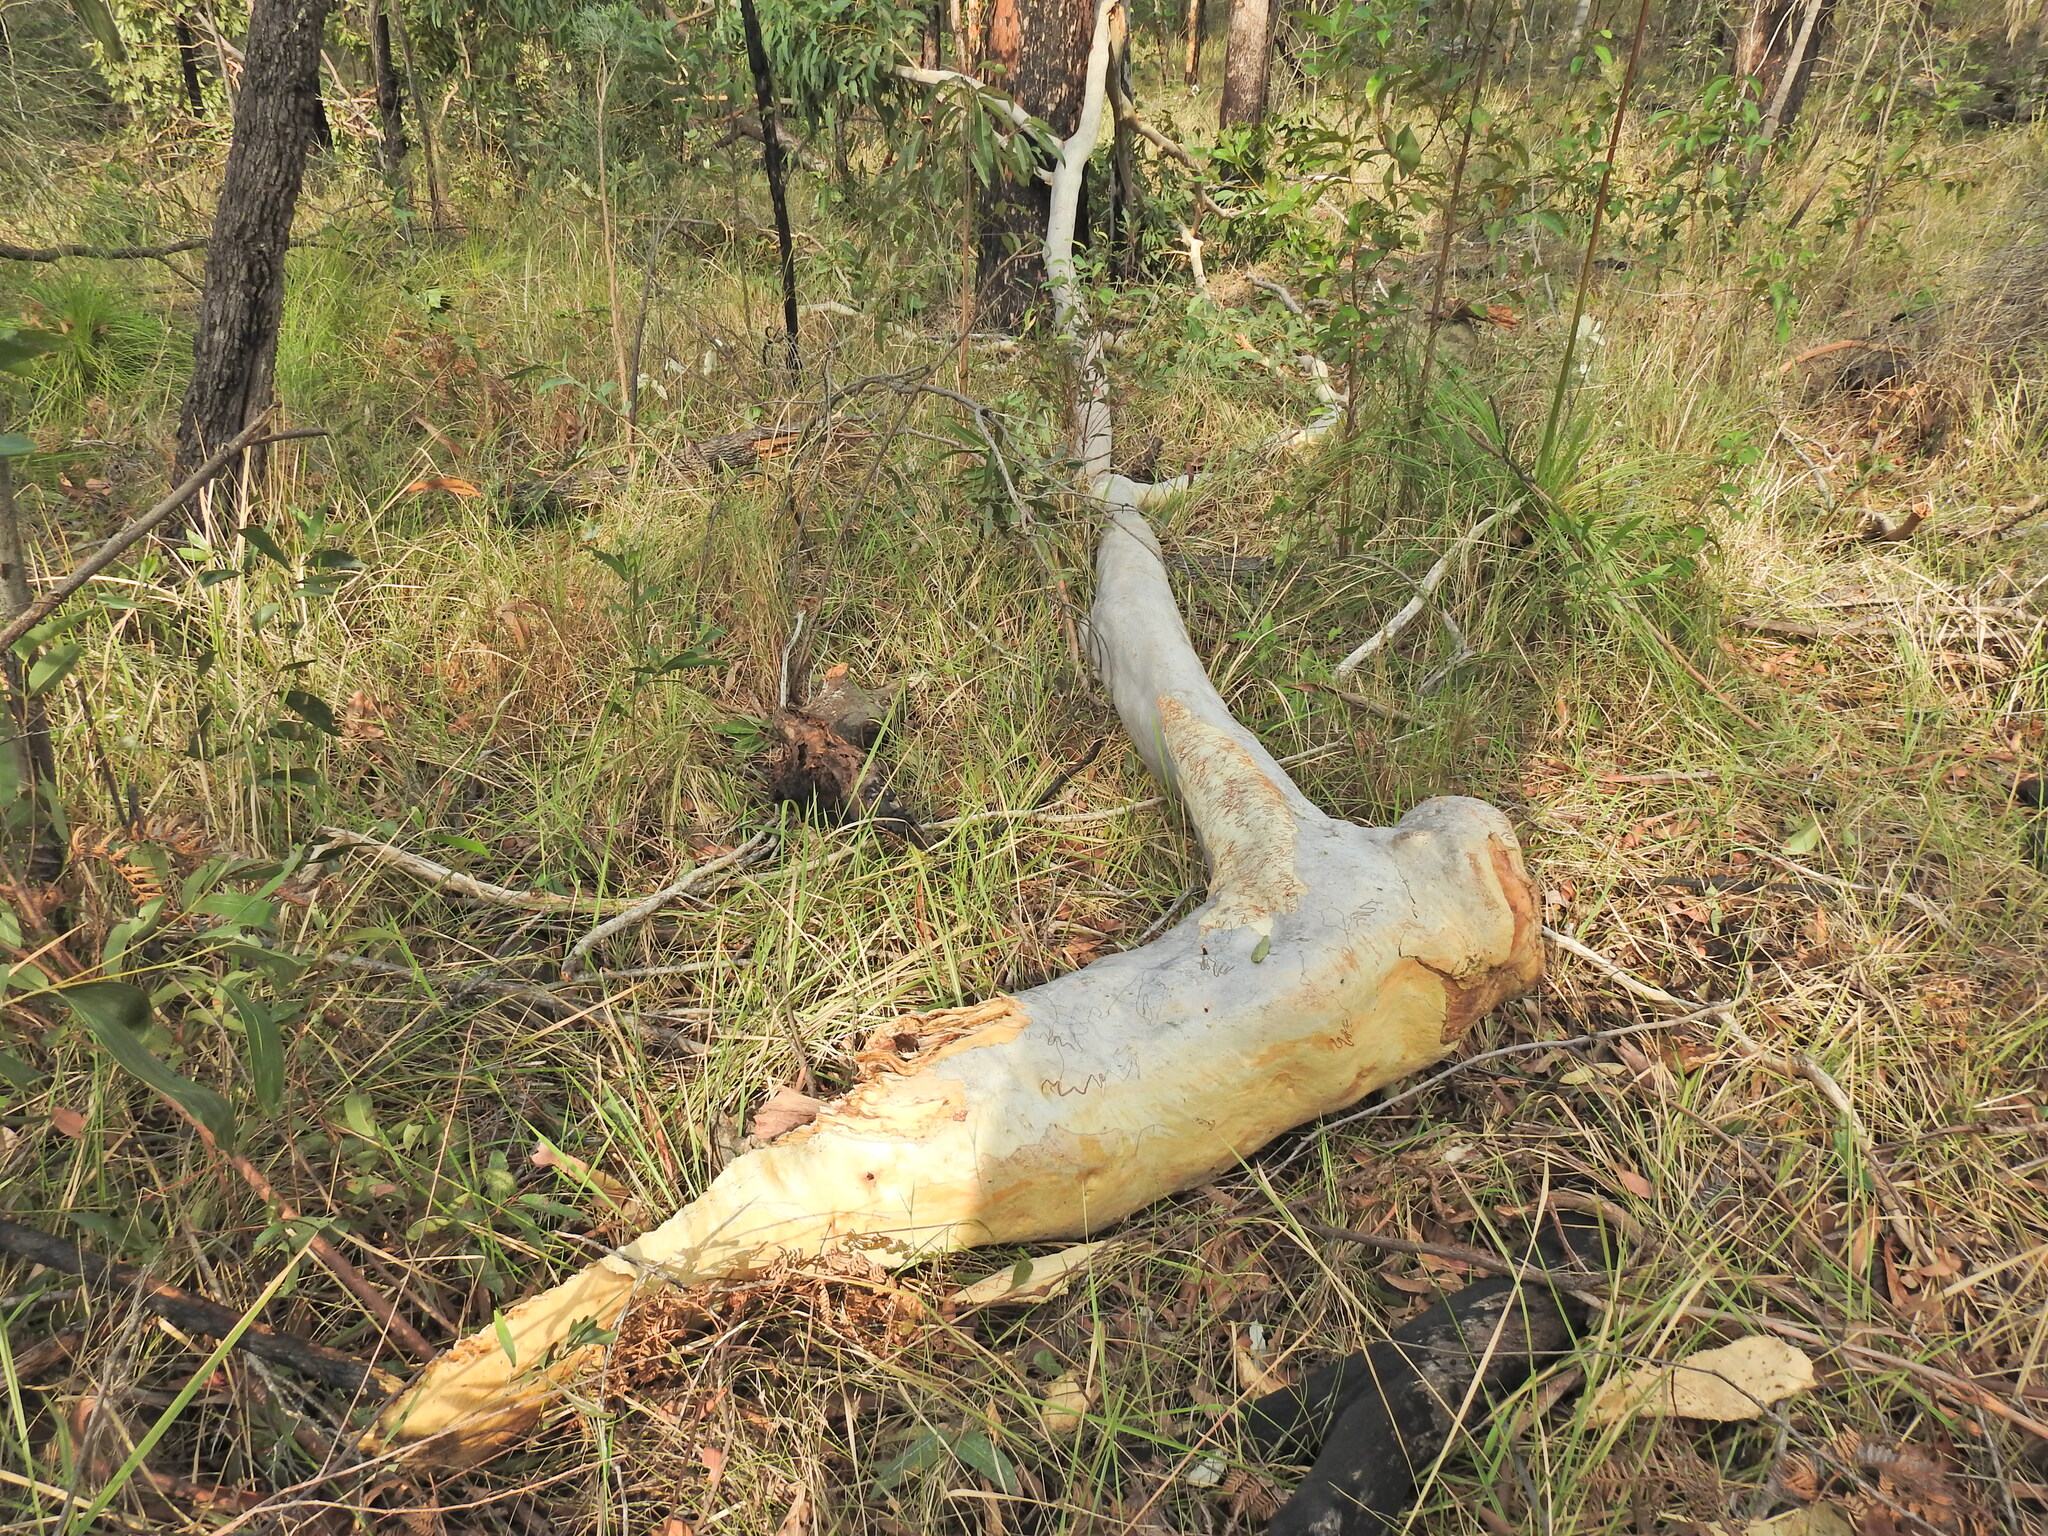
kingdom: Plantae
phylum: Tracheophyta
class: Magnoliopsida
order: Myrtales
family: Myrtaceae
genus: Eucalyptus
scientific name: Eucalyptus racemosa
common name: Scribbly gum
